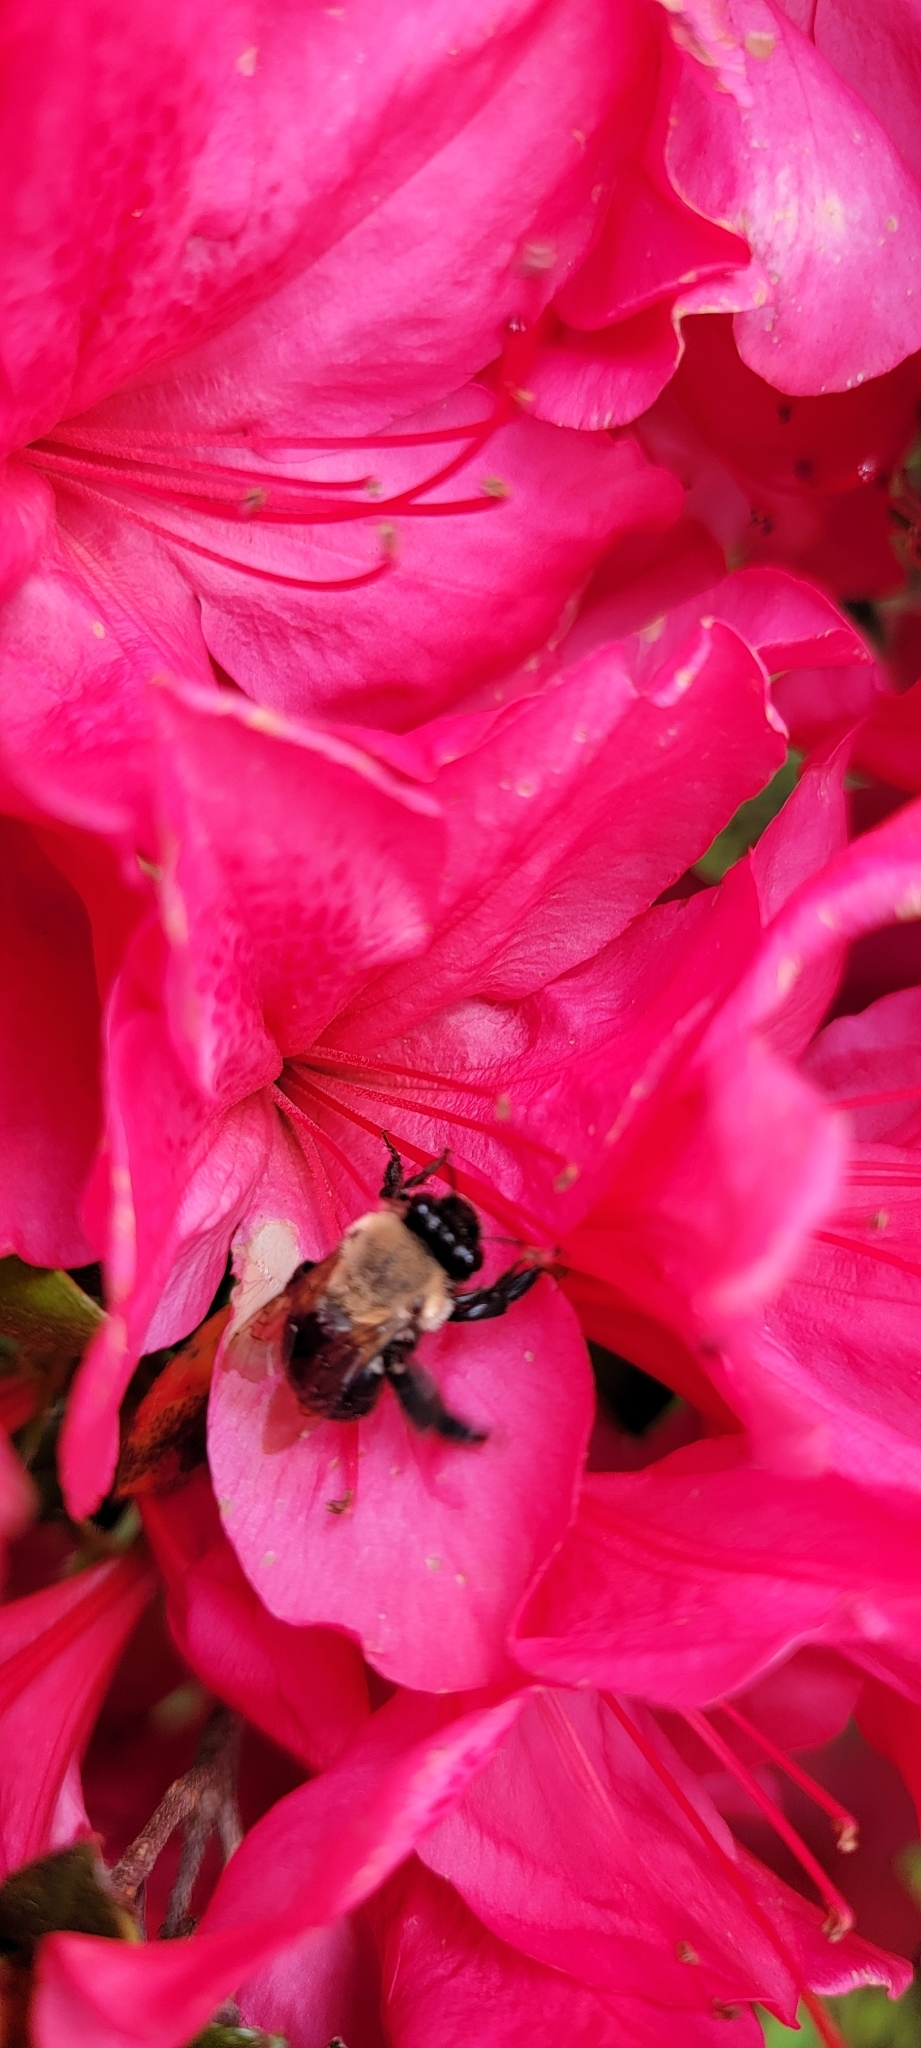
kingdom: Animalia
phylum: Arthropoda
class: Insecta
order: Hymenoptera
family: Apidae
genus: Habropoda
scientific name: Habropoda laboriosa
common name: Southeastern blueberry bee
